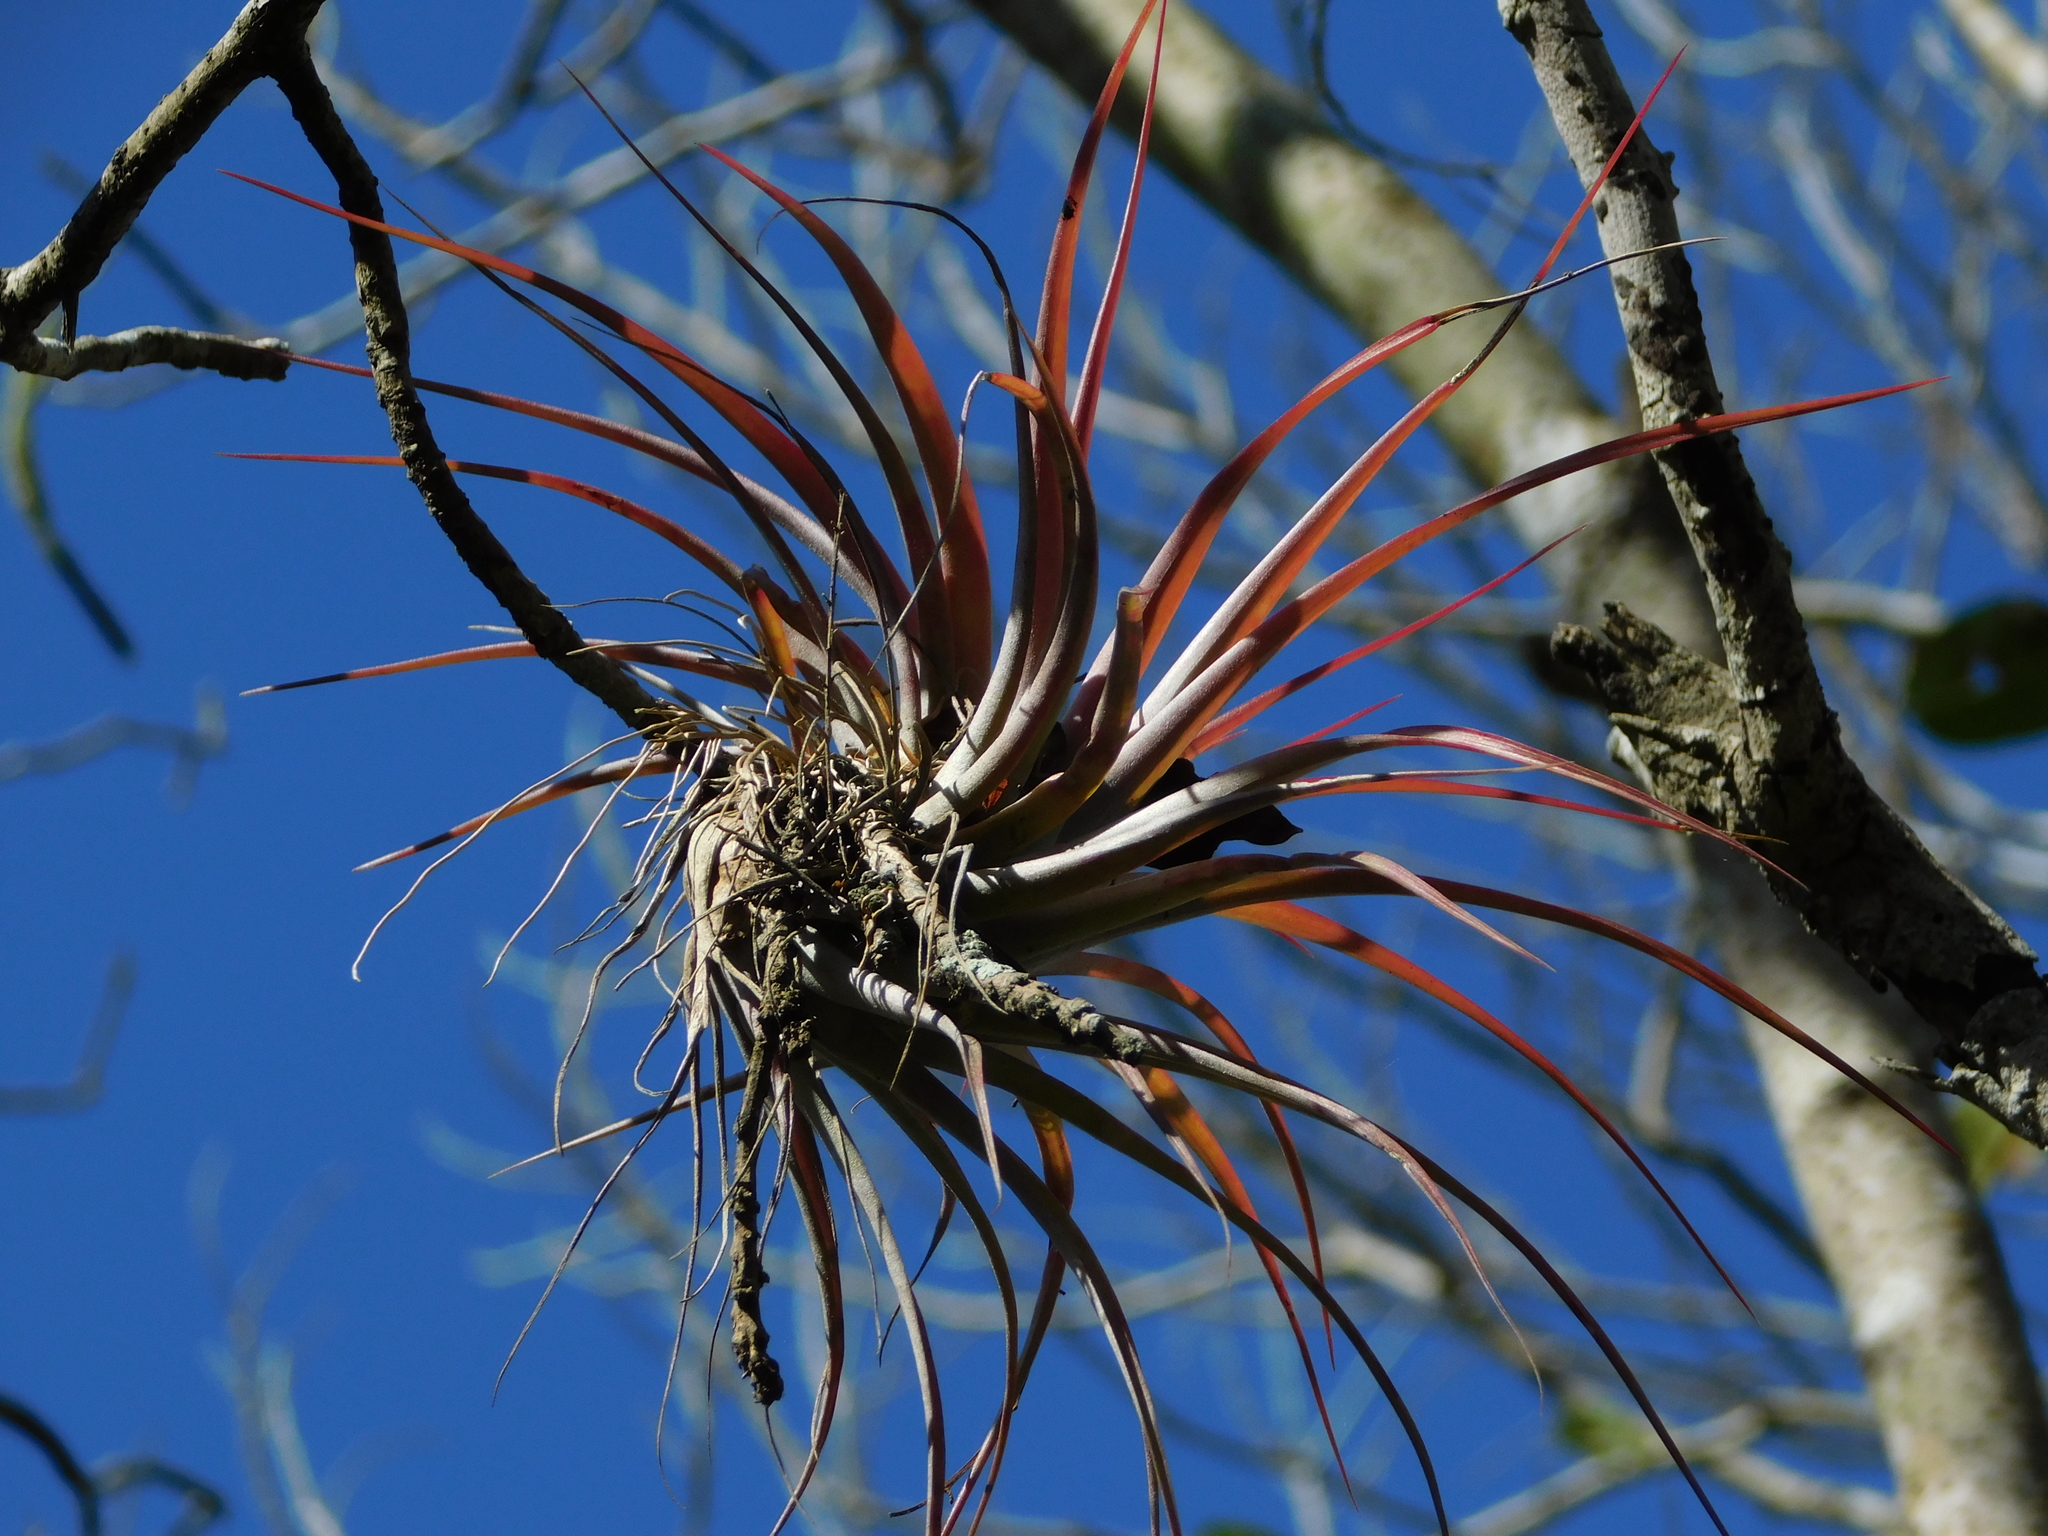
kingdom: Plantae
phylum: Tracheophyta
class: Liliopsida
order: Poales
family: Bromeliaceae
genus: Tillandsia
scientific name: Tillandsia brachycaulos
